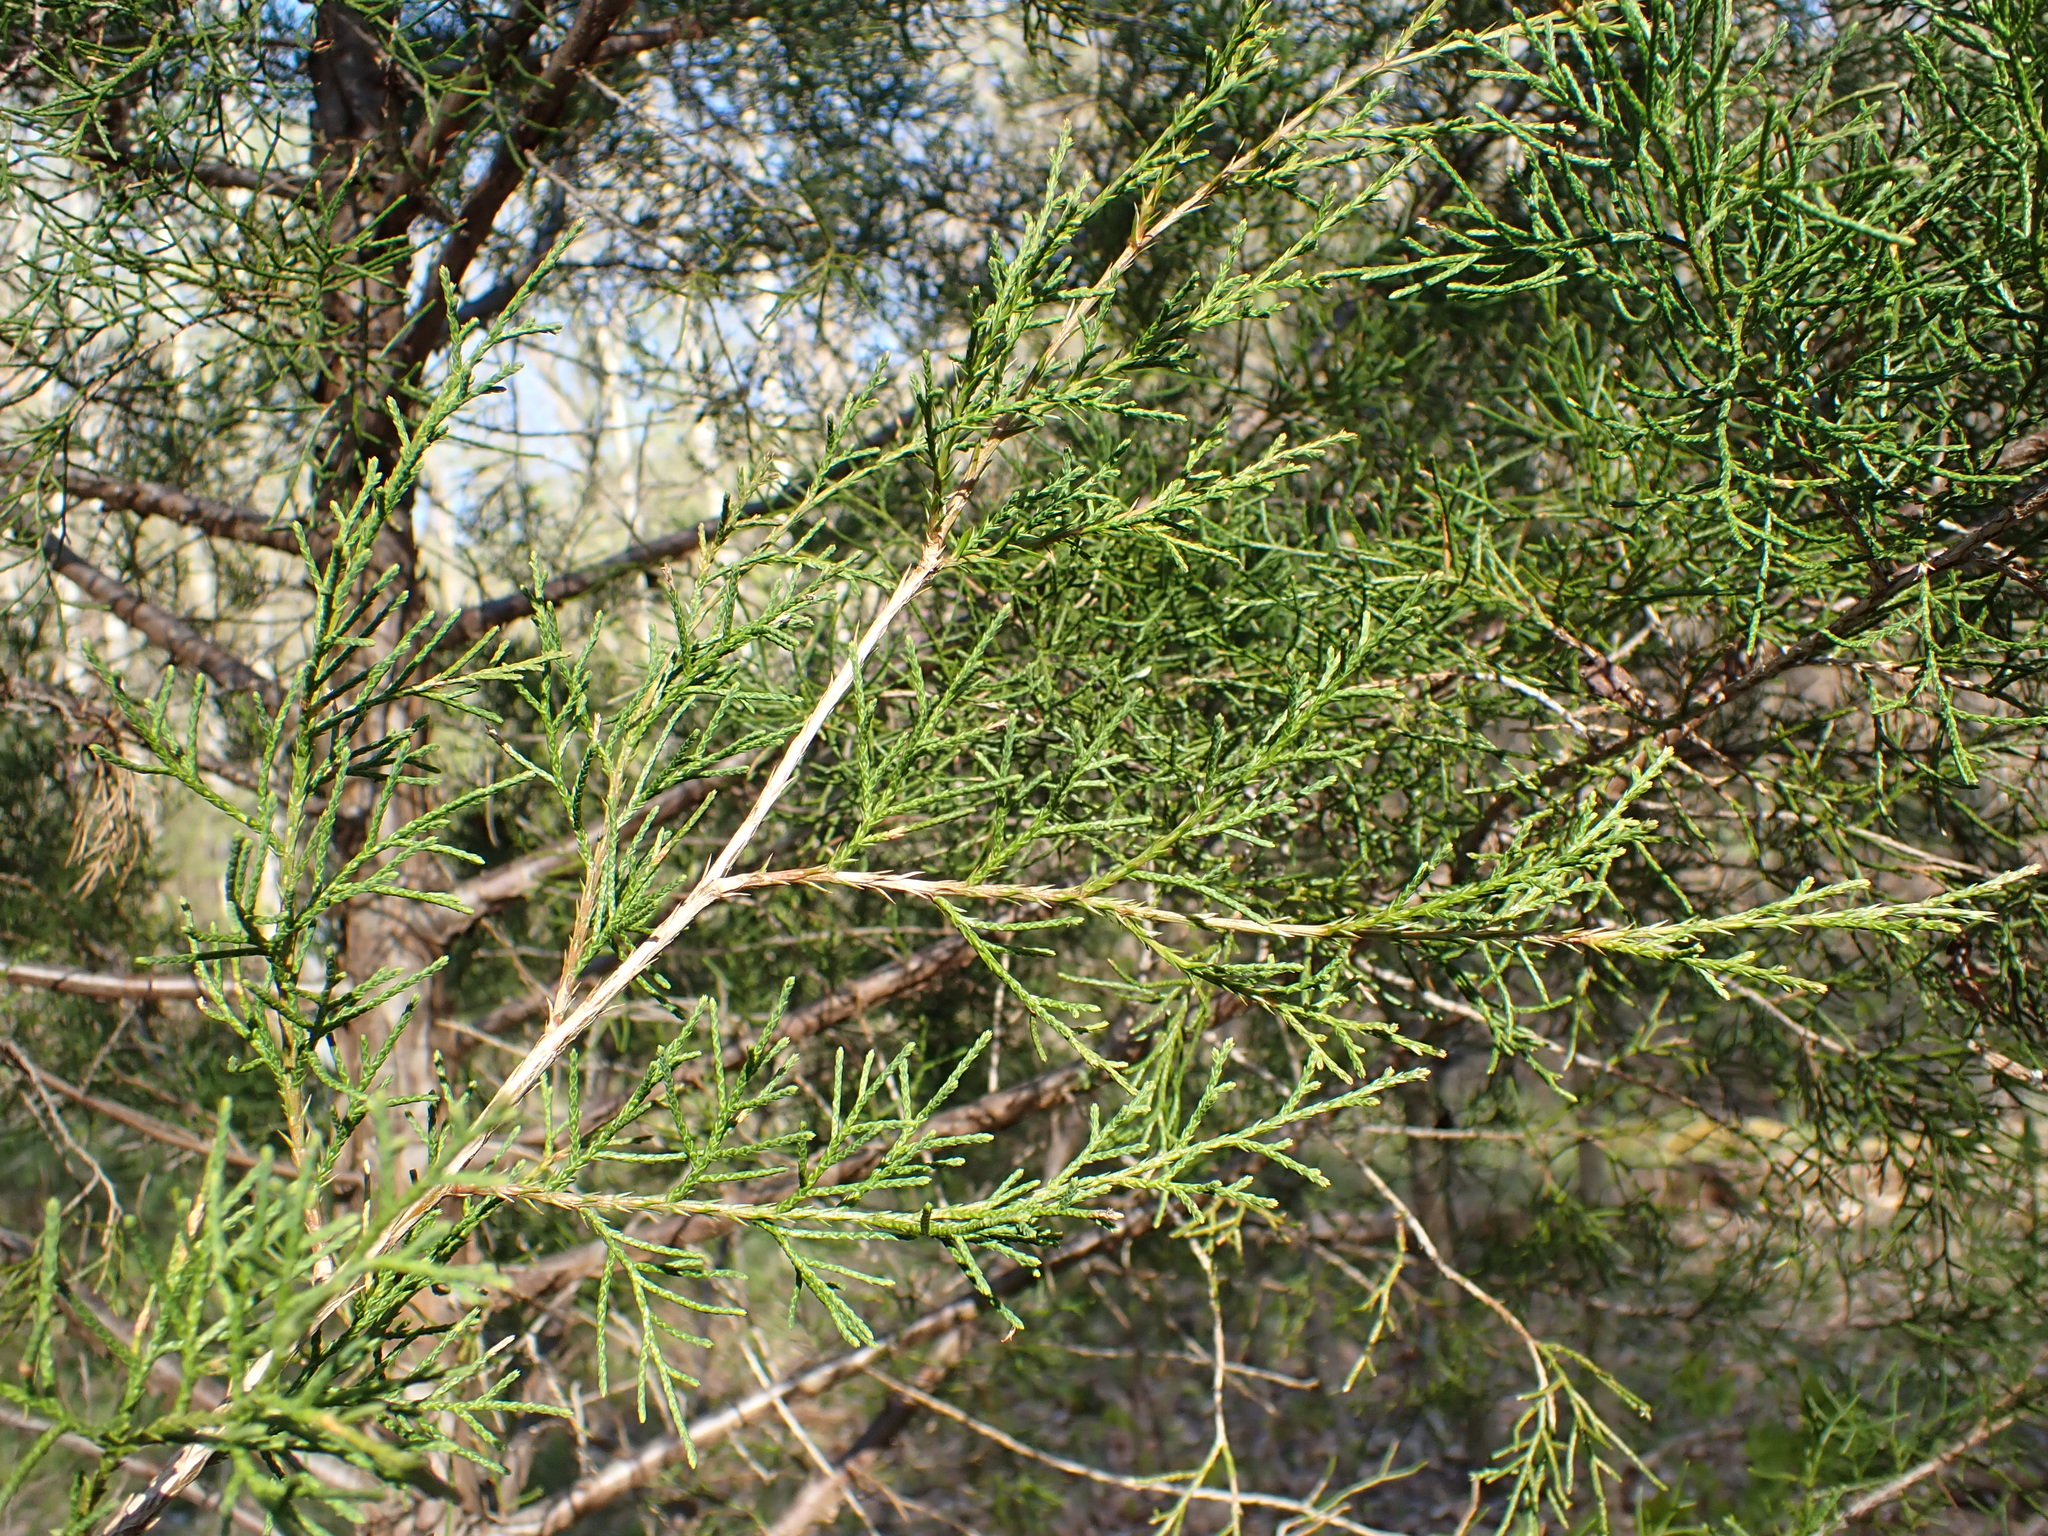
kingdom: Plantae
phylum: Tracheophyta
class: Pinopsida
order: Pinales
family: Cupressaceae
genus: Juniperus
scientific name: Juniperus virginiana
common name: Red juniper
